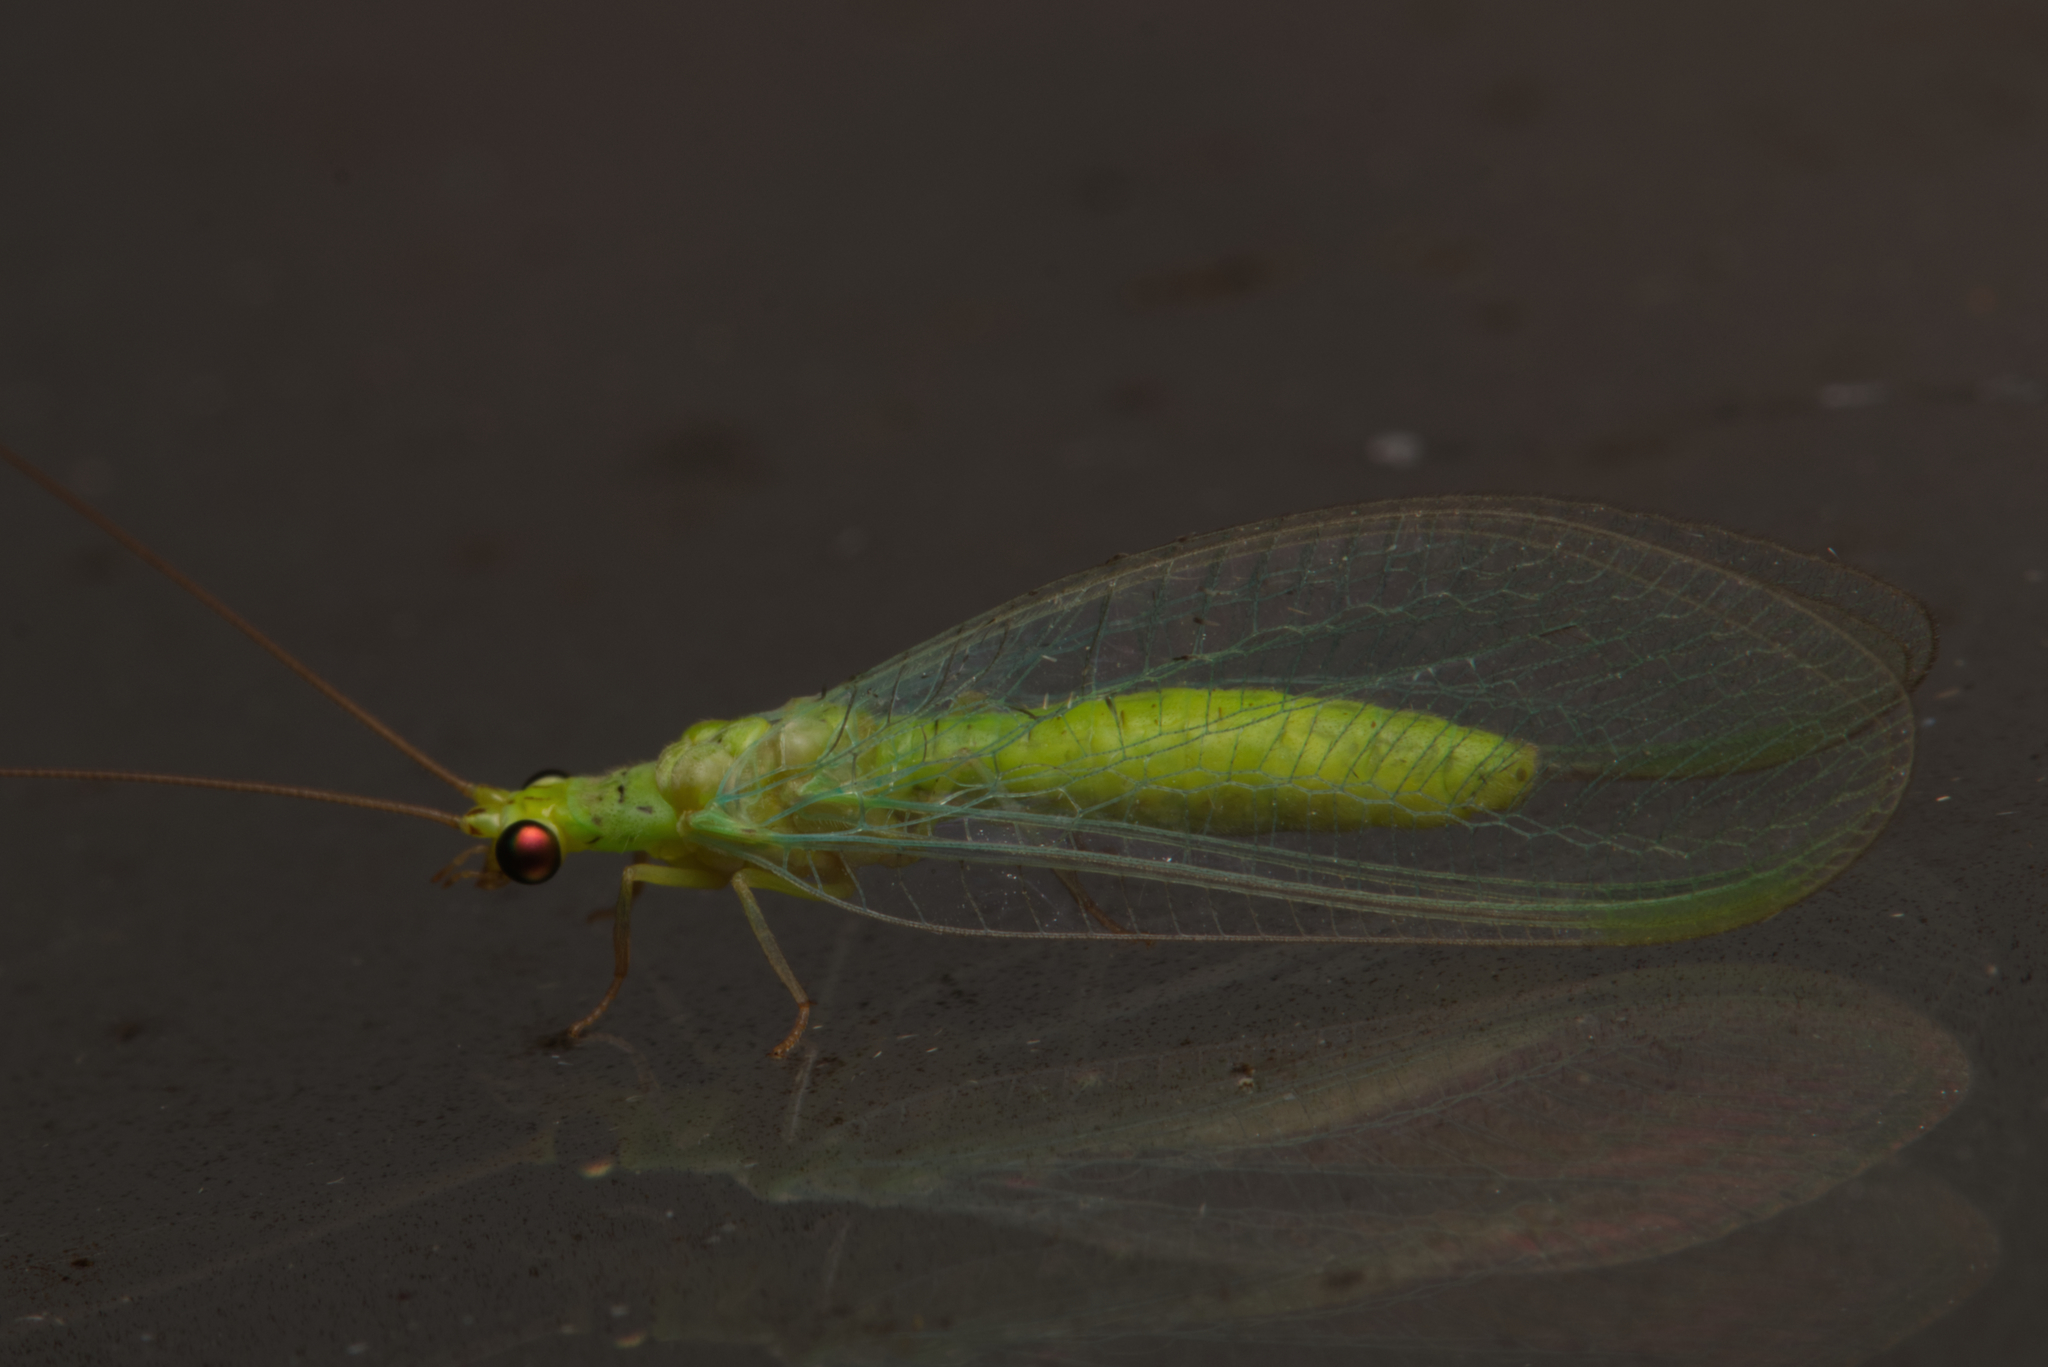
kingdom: Animalia
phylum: Arthropoda
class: Insecta
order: Neuroptera
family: Chrysopidae
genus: Plesiochrysa
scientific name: Plesiochrysa ramburi
